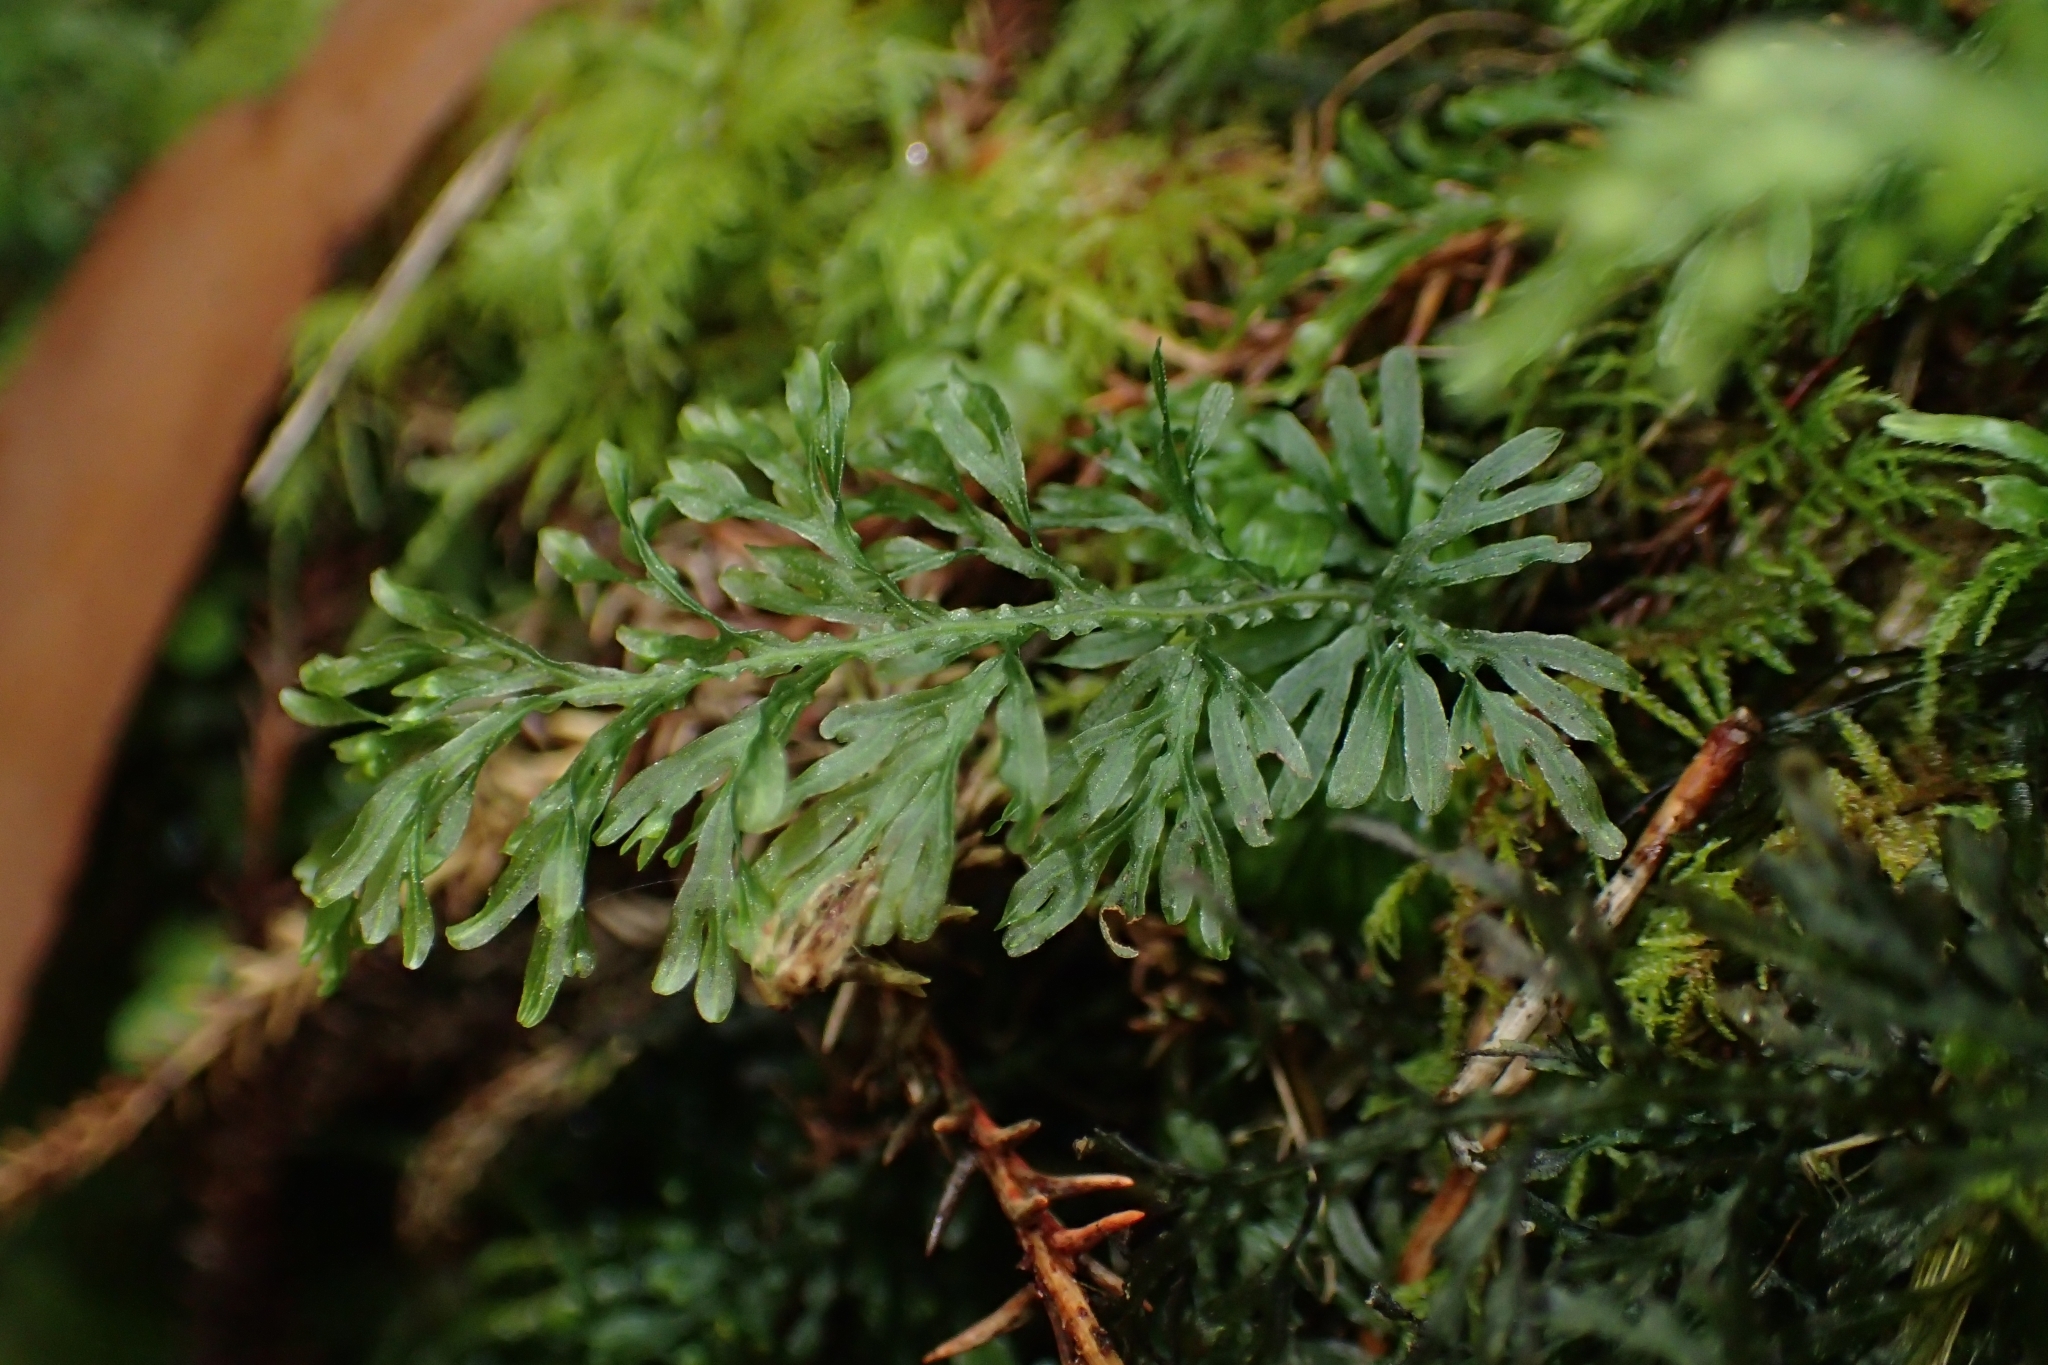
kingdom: Plantae
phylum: Tracheophyta
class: Polypodiopsida
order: Hymenophyllales
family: Hymenophyllaceae
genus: Hymenophyllum
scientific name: Hymenophyllum australe
